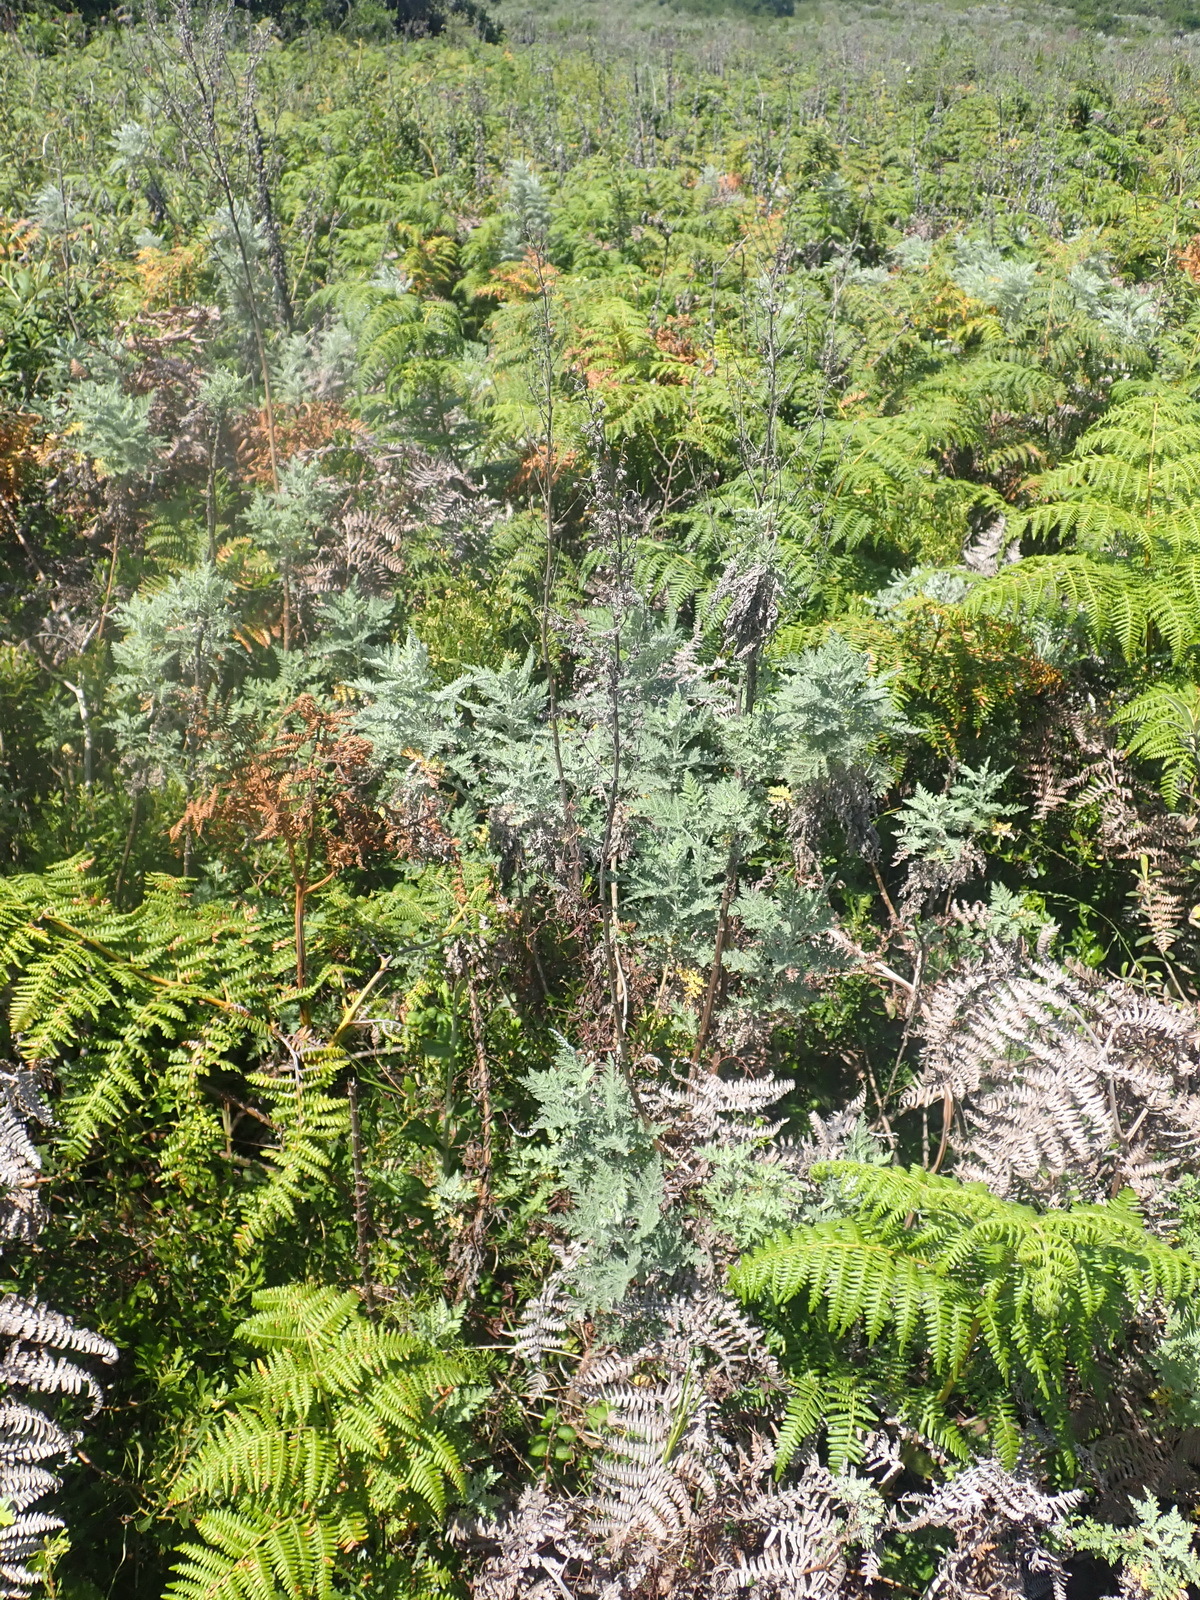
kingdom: Plantae
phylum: Tracheophyta
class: Magnoliopsida
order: Asterales
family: Asteraceae
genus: Artemisia
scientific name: Artemisia afra
